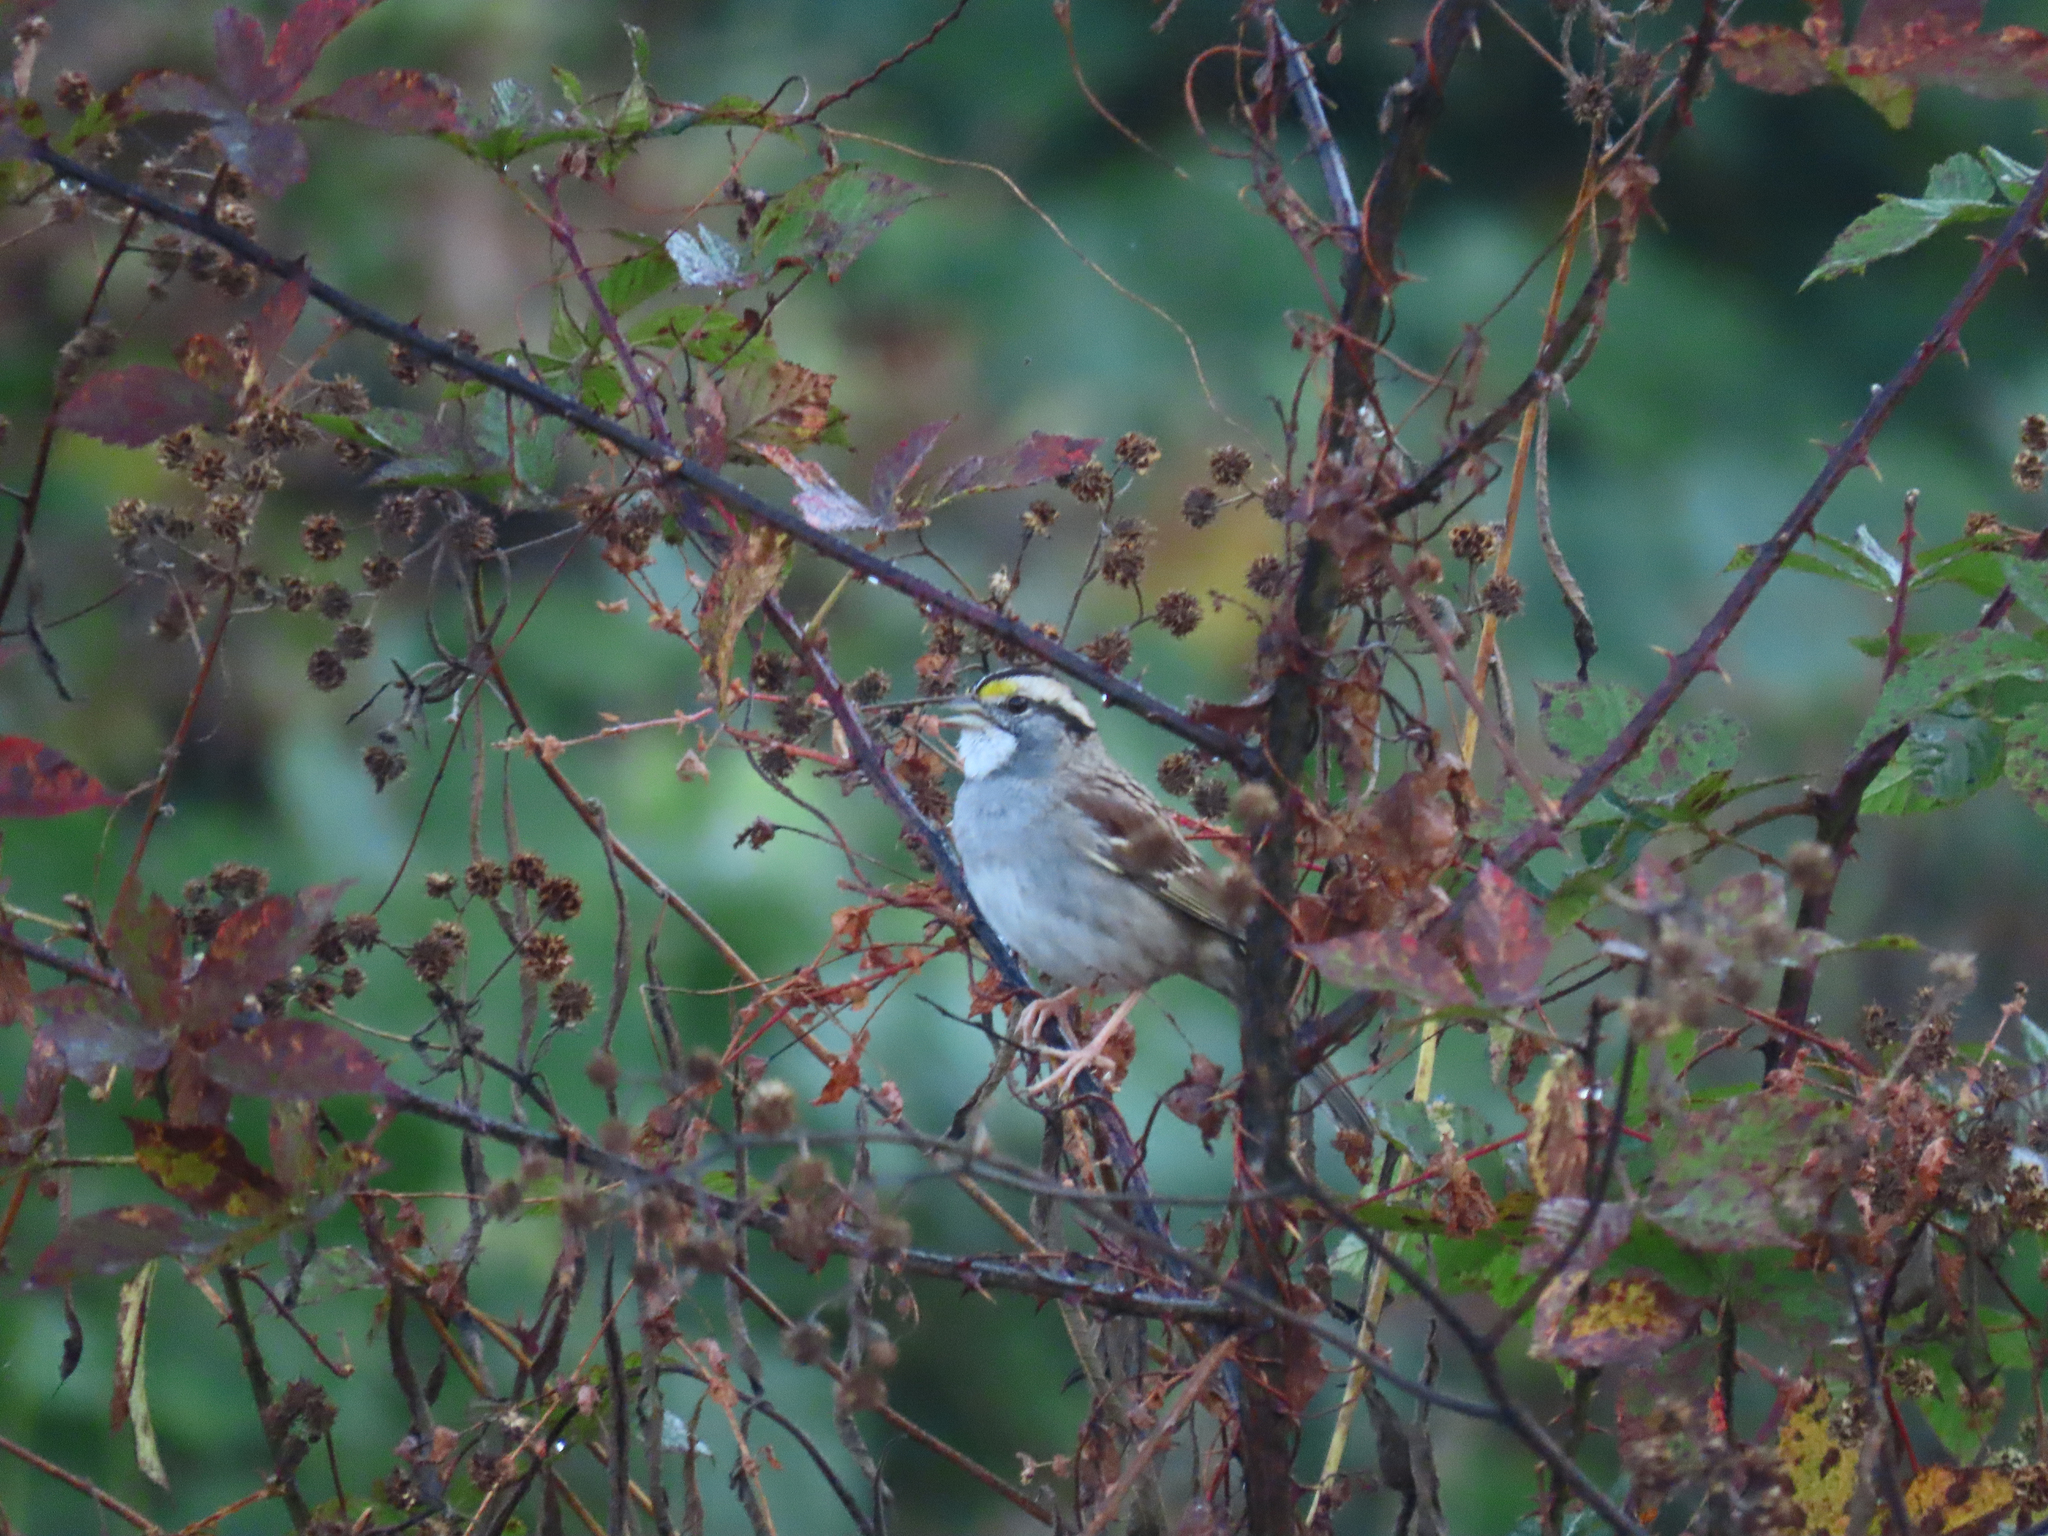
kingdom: Animalia
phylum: Chordata
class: Aves
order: Passeriformes
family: Passerellidae
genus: Zonotrichia
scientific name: Zonotrichia albicollis
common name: White-throated sparrow
